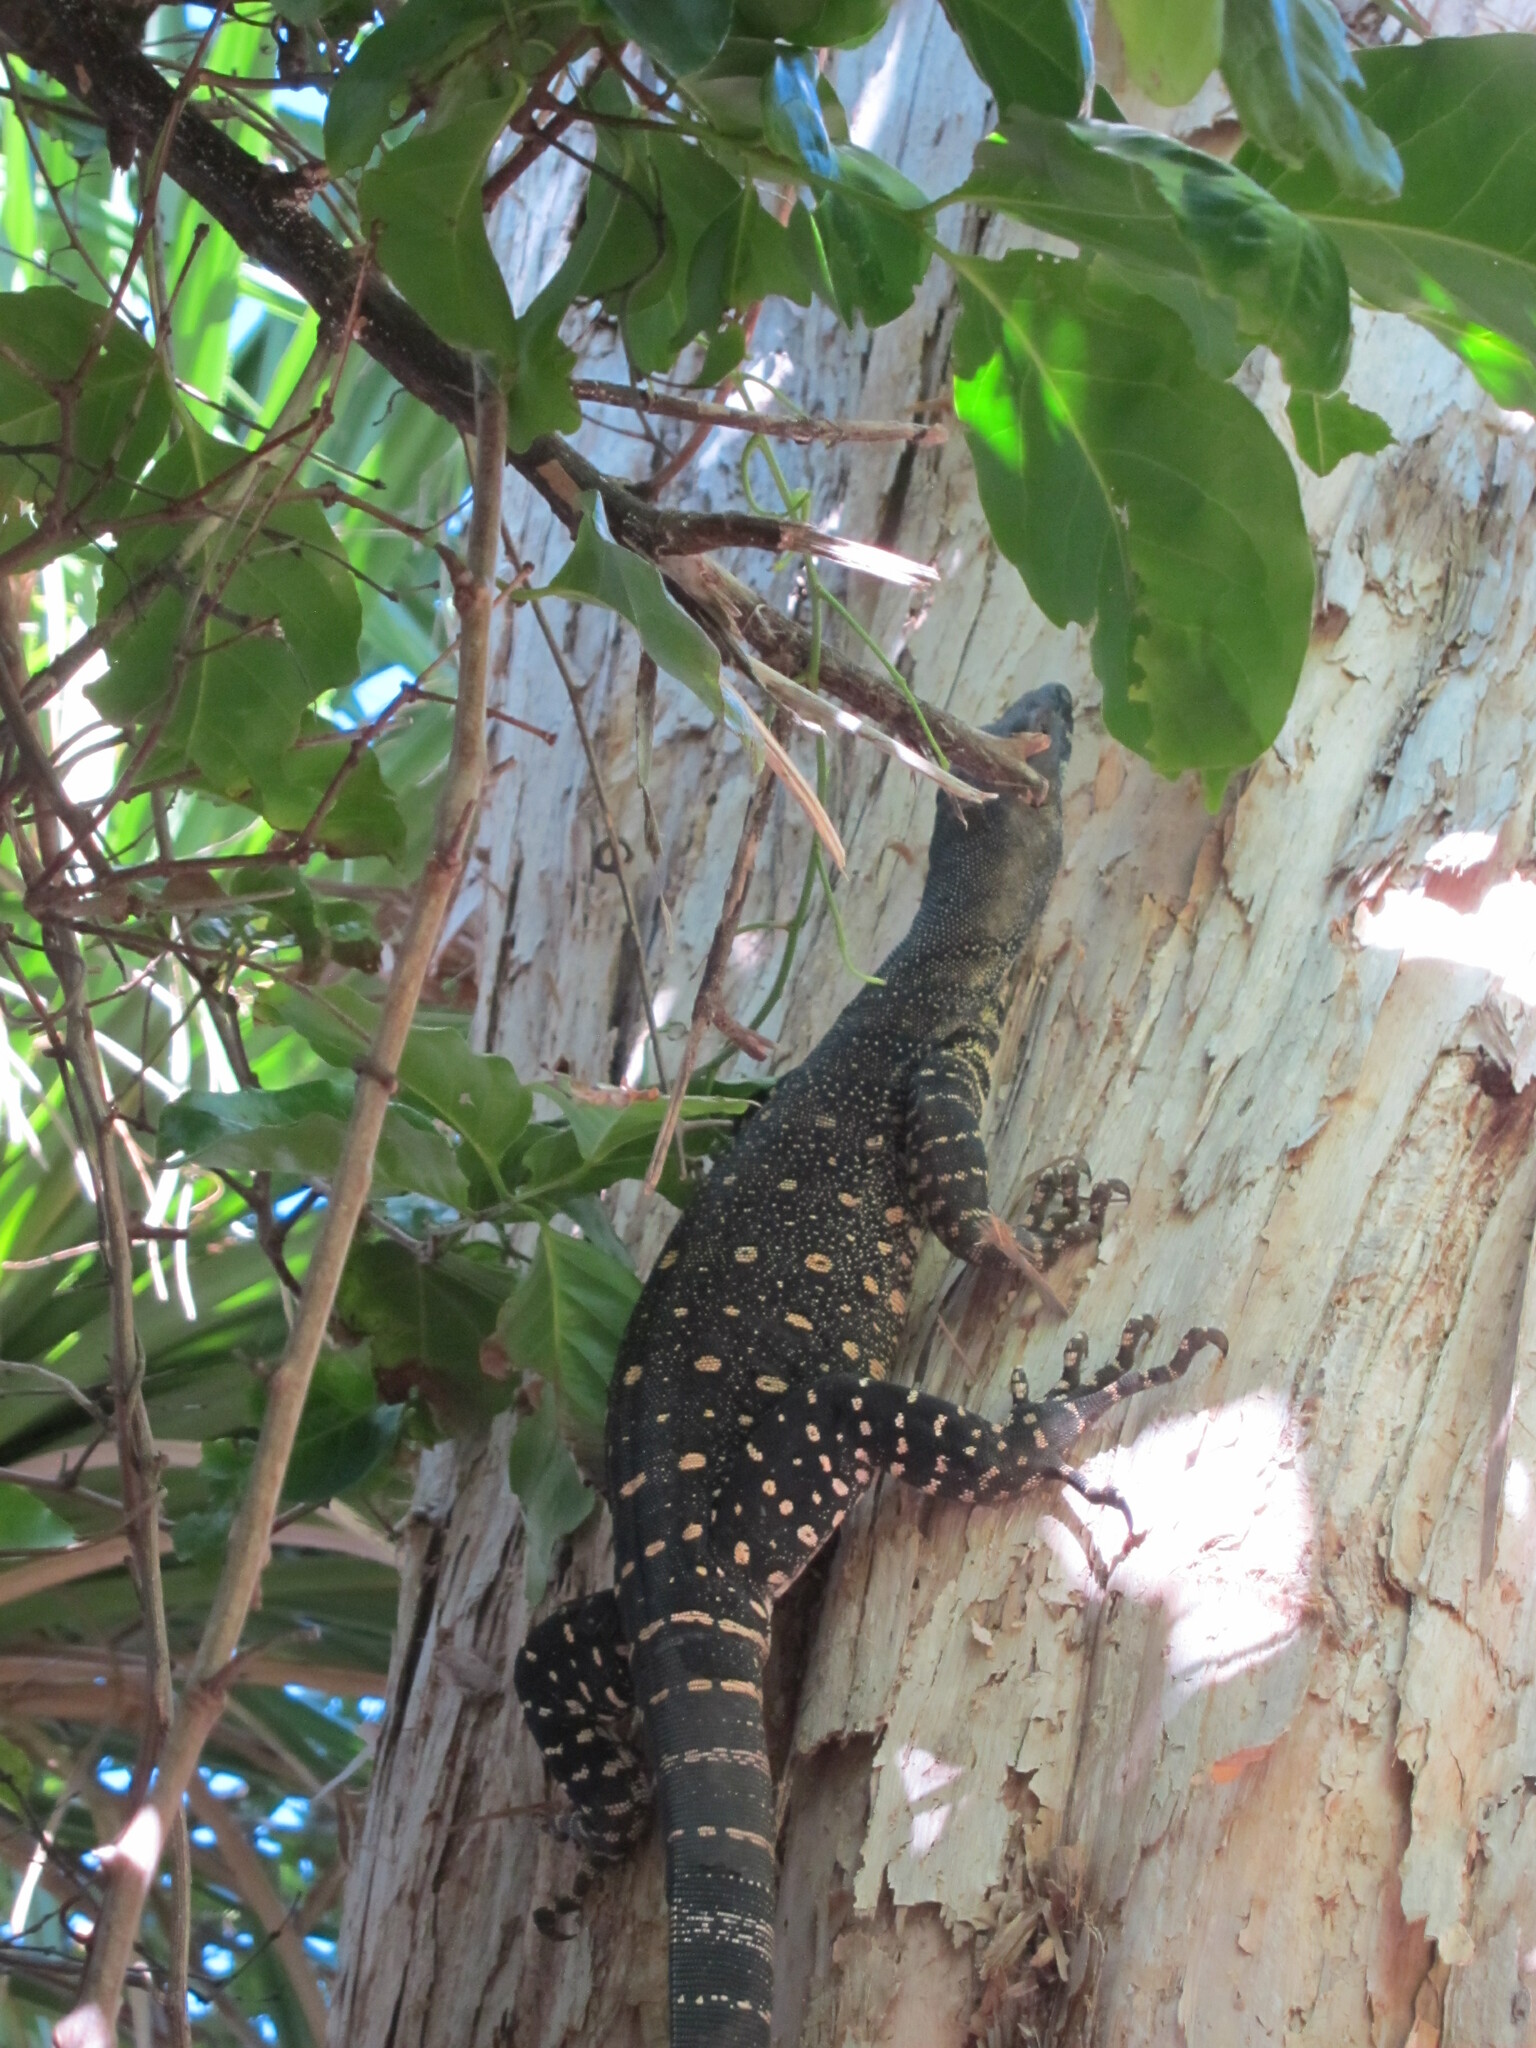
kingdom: Animalia
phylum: Chordata
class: Squamata
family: Varanidae
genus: Varanus
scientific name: Varanus varius
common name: Lace monitor
